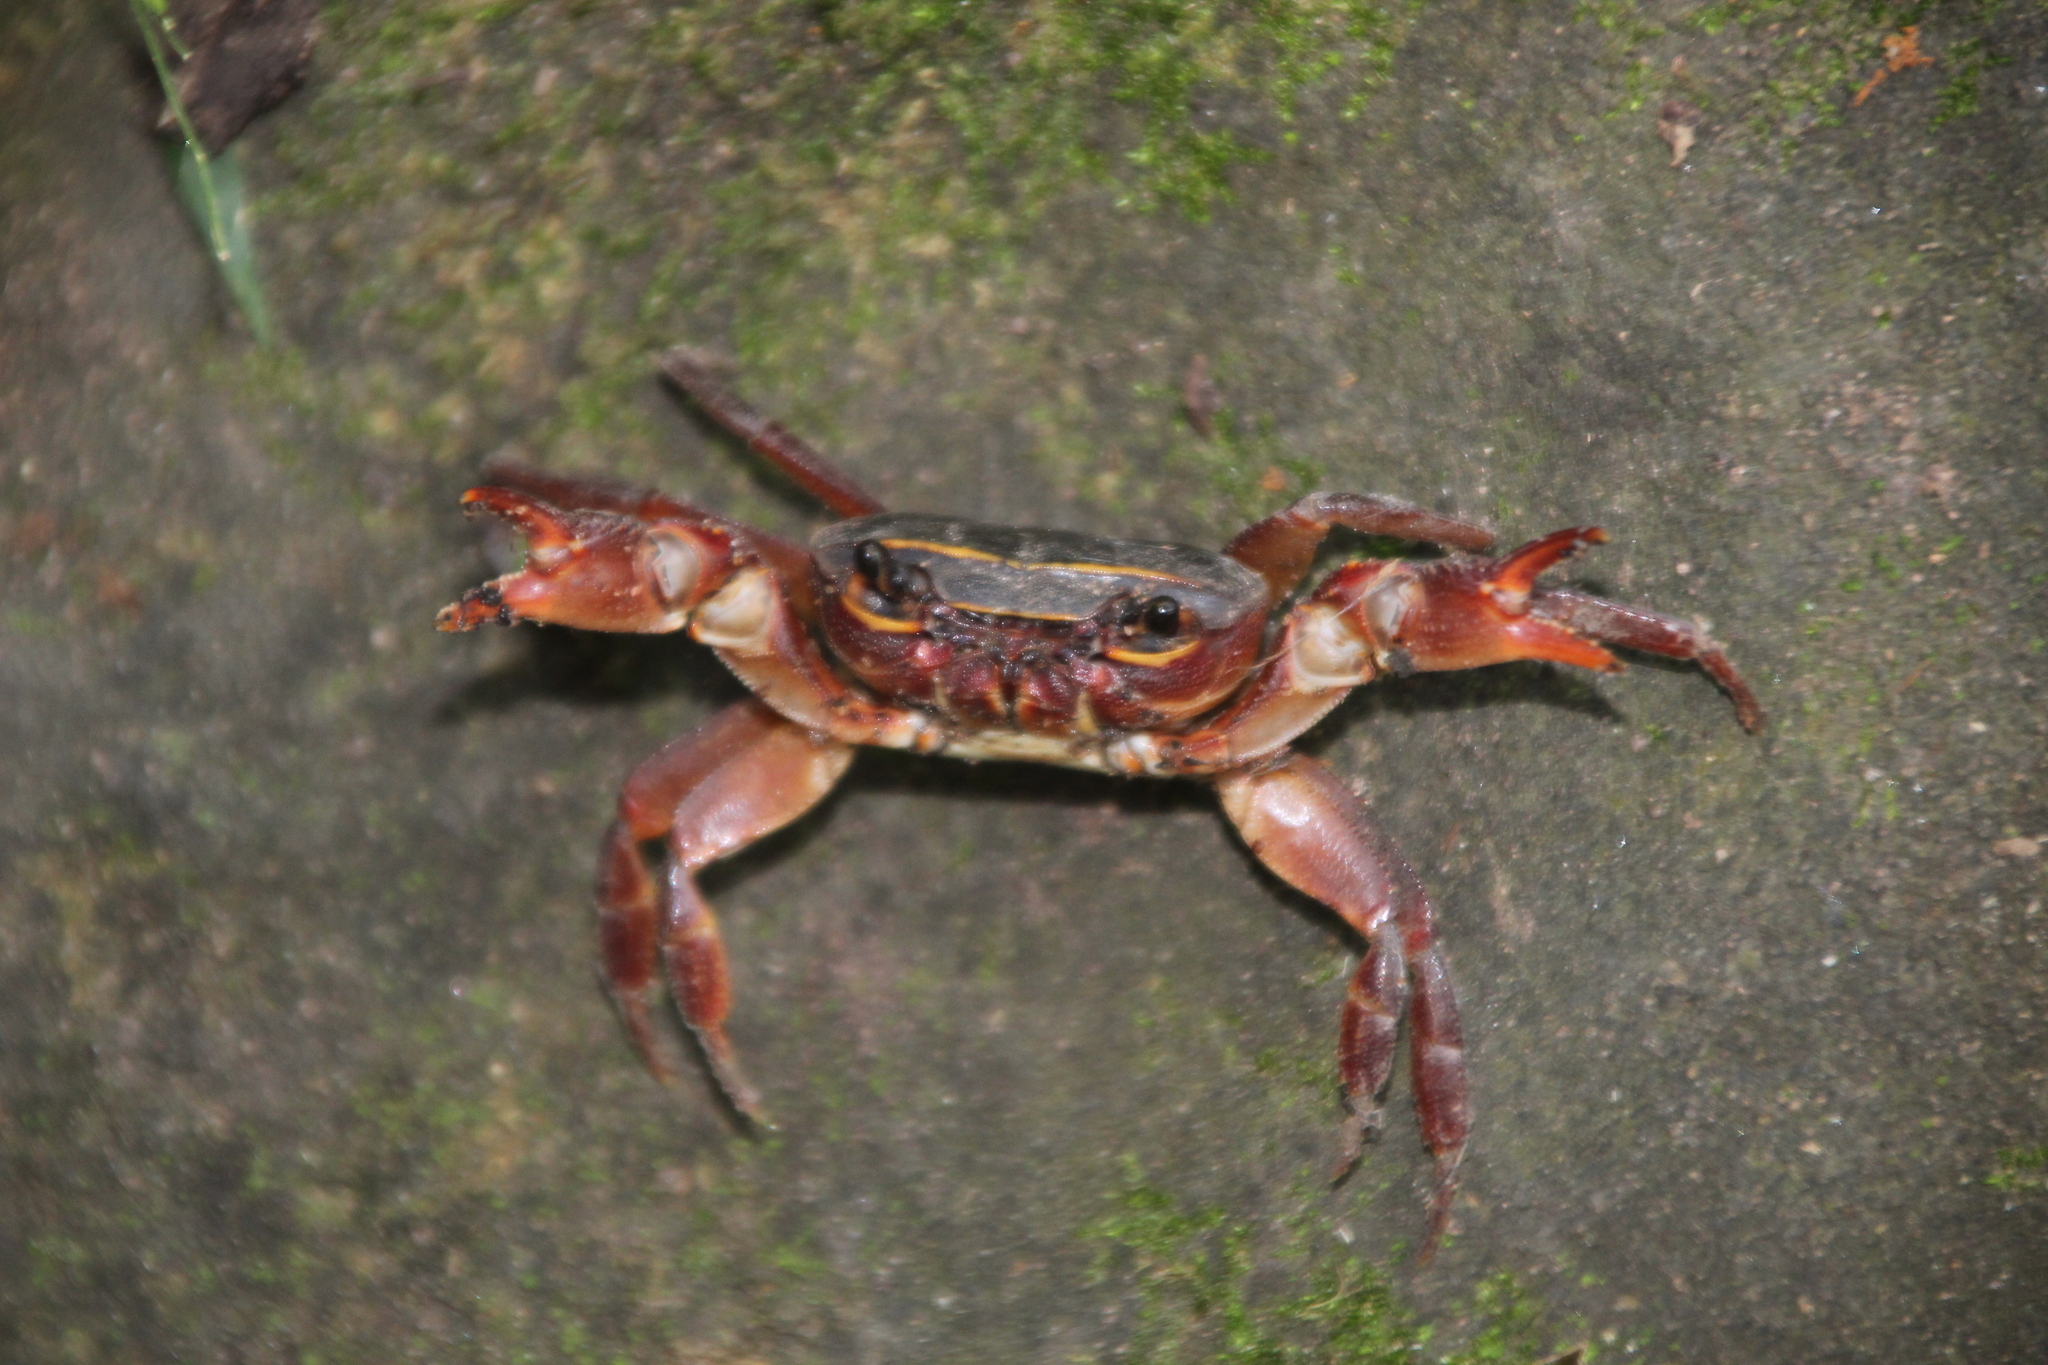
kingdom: Animalia
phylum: Arthropoda
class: Malacostraca
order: Decapoda
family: Potamonautidae
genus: Potamonautes
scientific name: Potamonautes sidneyi
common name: Natal river crab
